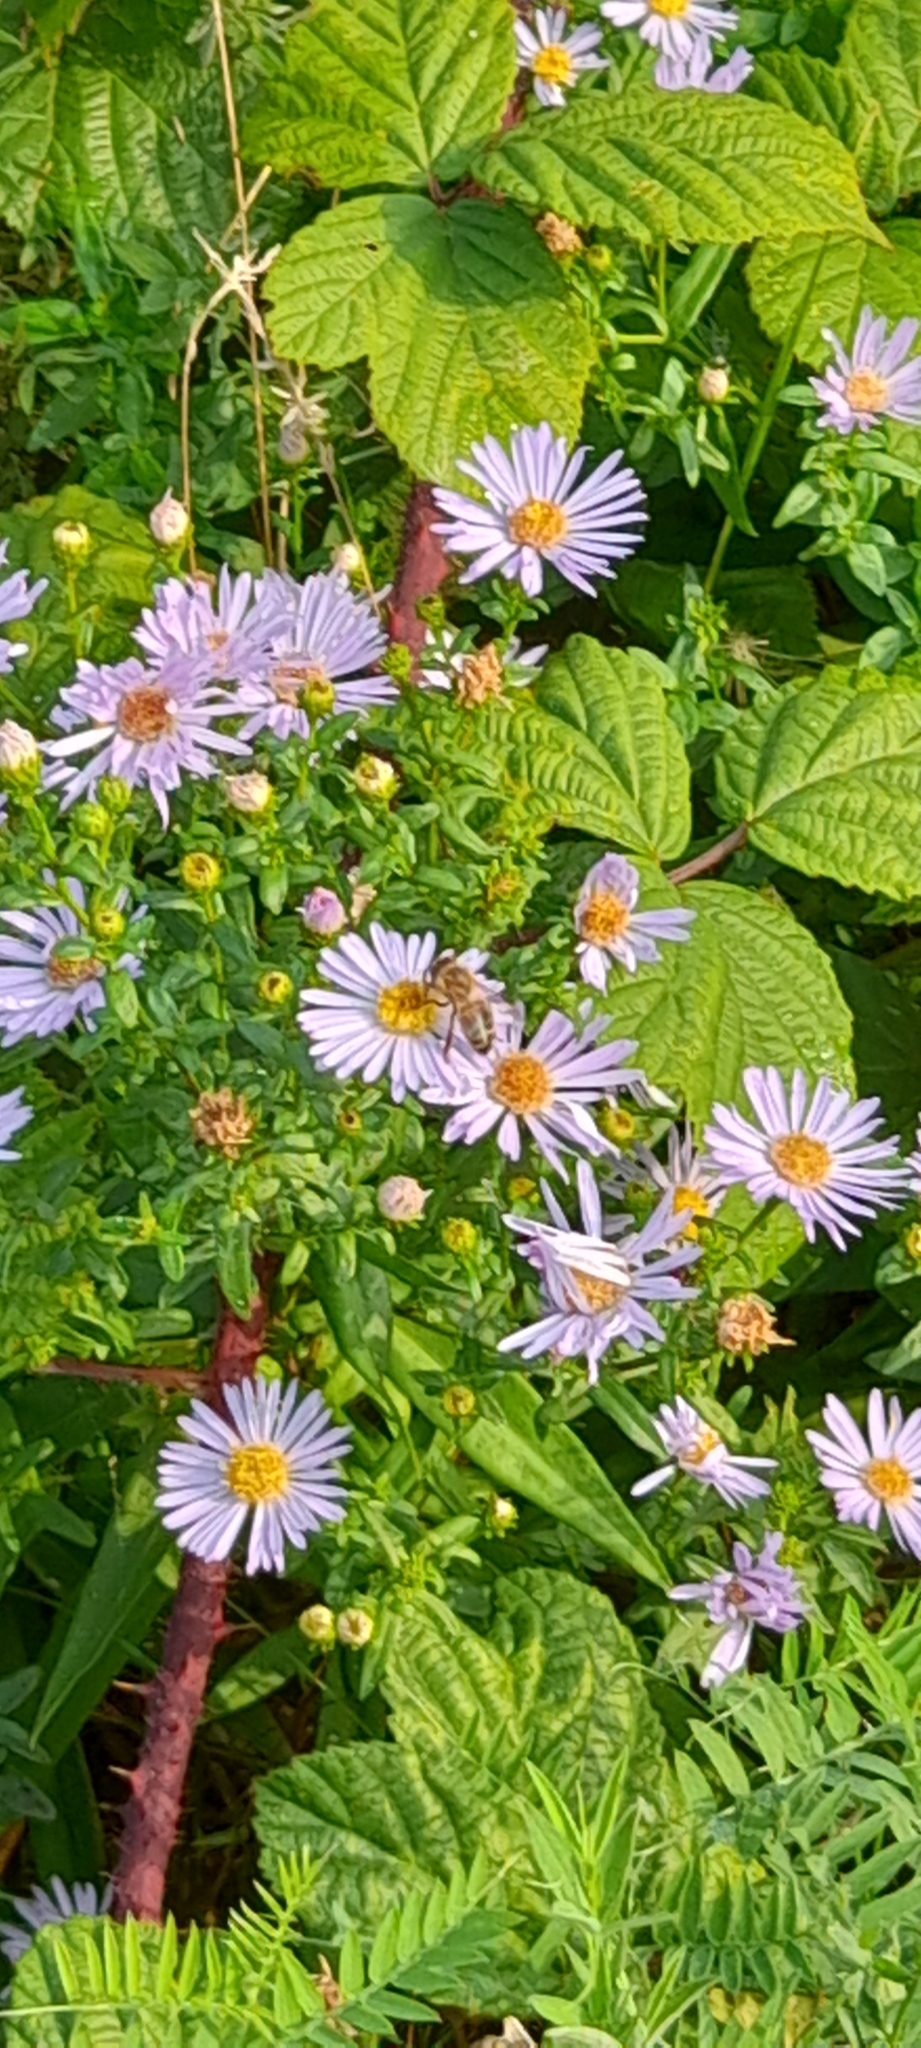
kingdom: Plantae
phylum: Tracheophyta
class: Magnoliopsida
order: Asterales
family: Asteraceae
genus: Symphyotrichum
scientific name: Symphyotrichum salignum
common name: Common michaelmas daisy
